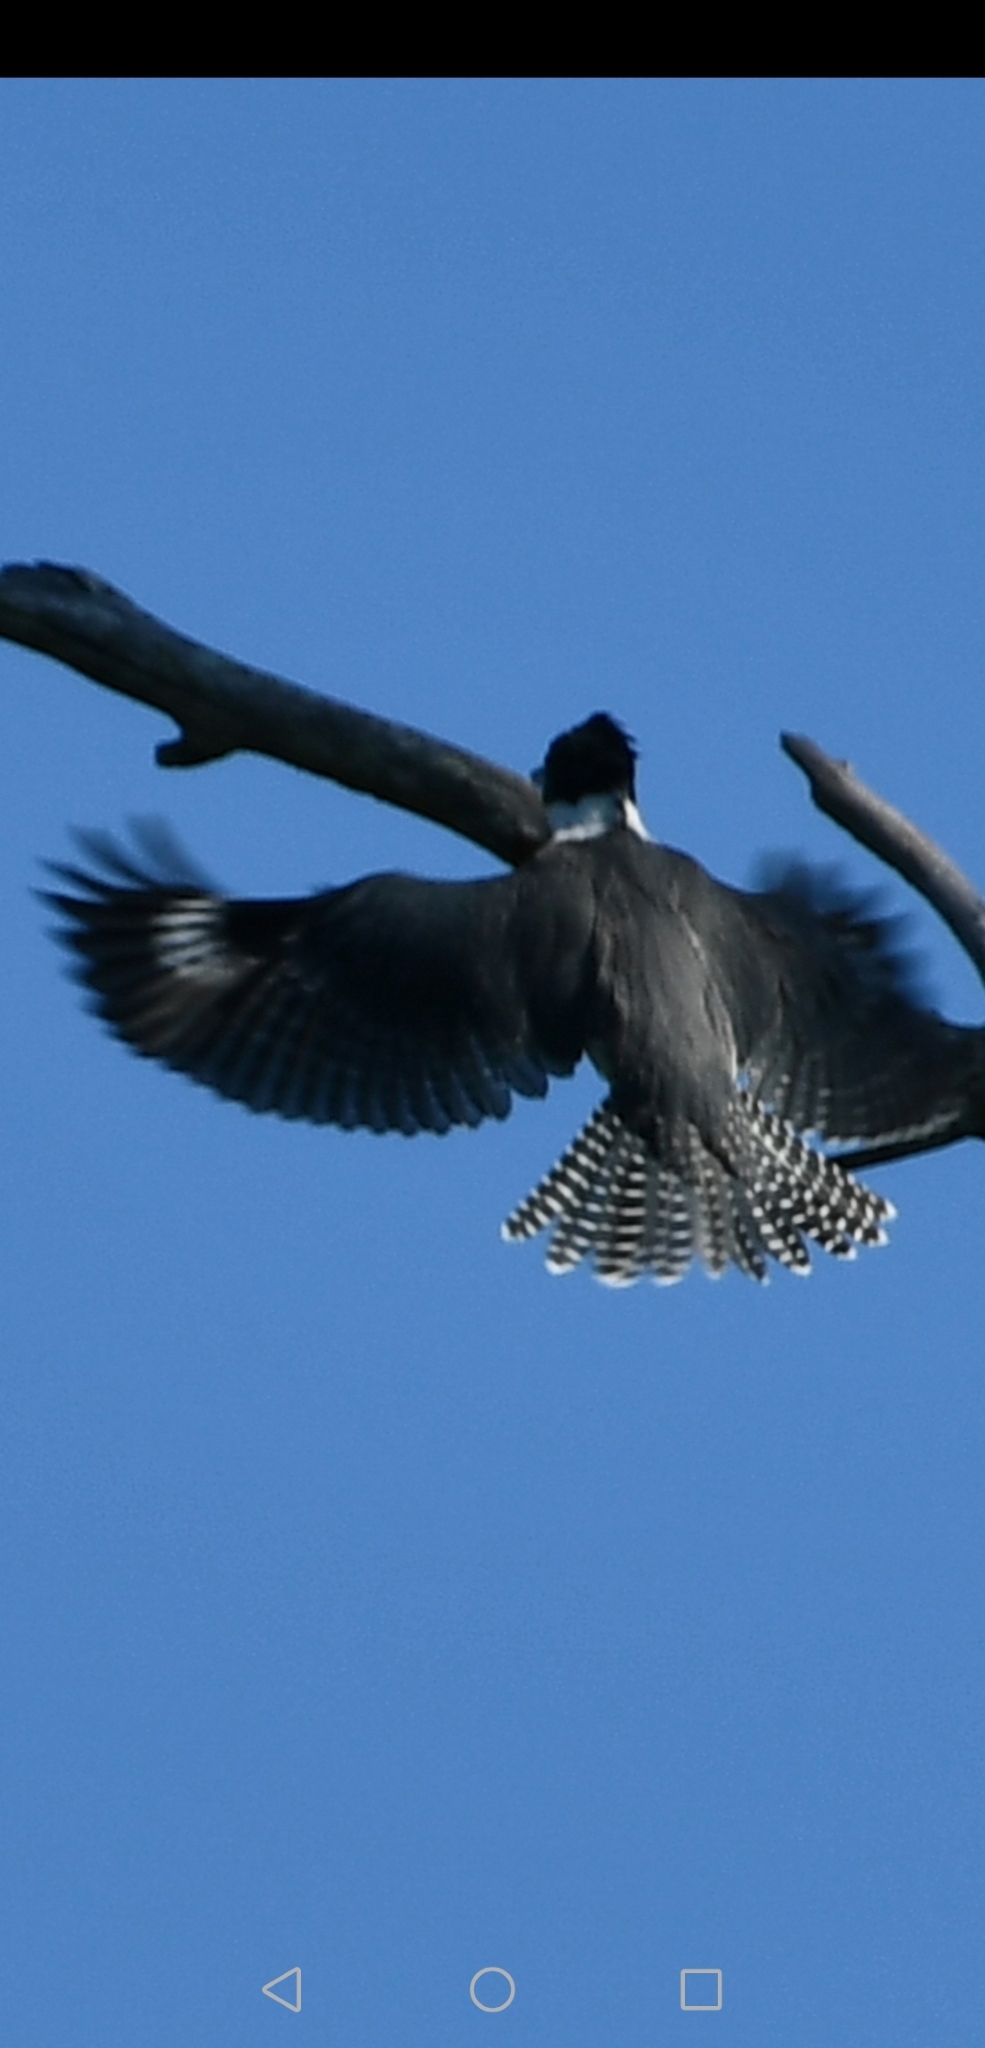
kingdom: Animalia
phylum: Chordata
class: Aves
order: Coraciiformes
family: Alcedinidae
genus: Megaceryle
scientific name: Megaceryle alcyon
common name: Belted kingfisher
